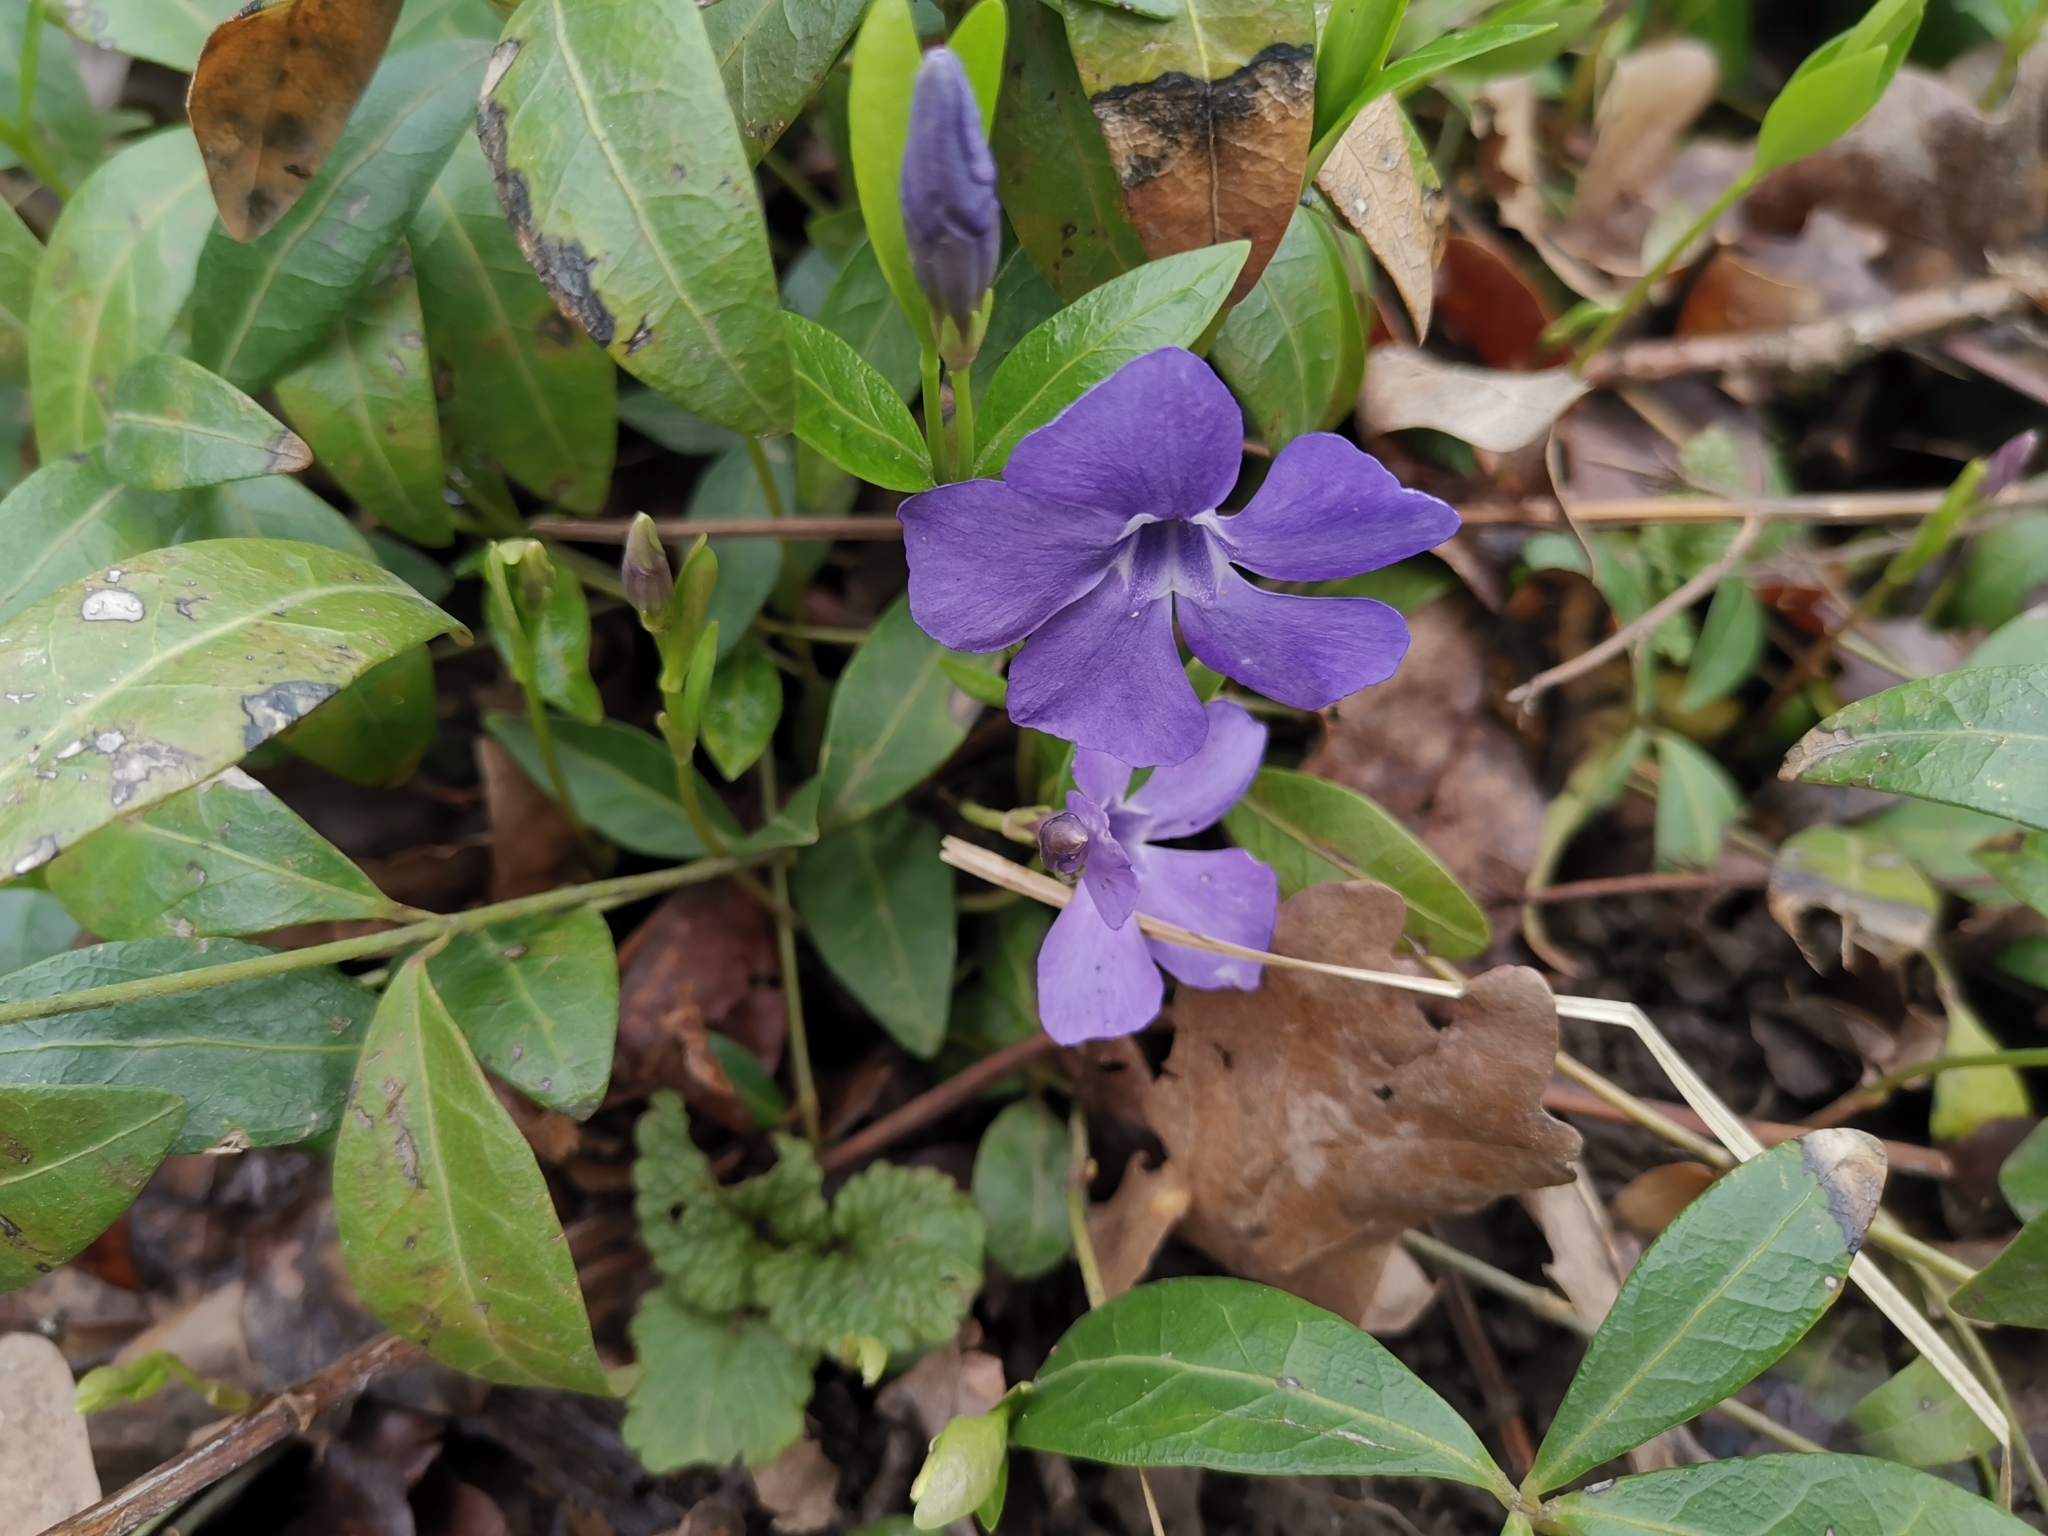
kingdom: Plantae
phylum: Tracheophyta
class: Magnoliopsida
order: Gentianales
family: Apocynaceae
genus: Vinca
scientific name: Vinca minor
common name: Lesser periwinkle
